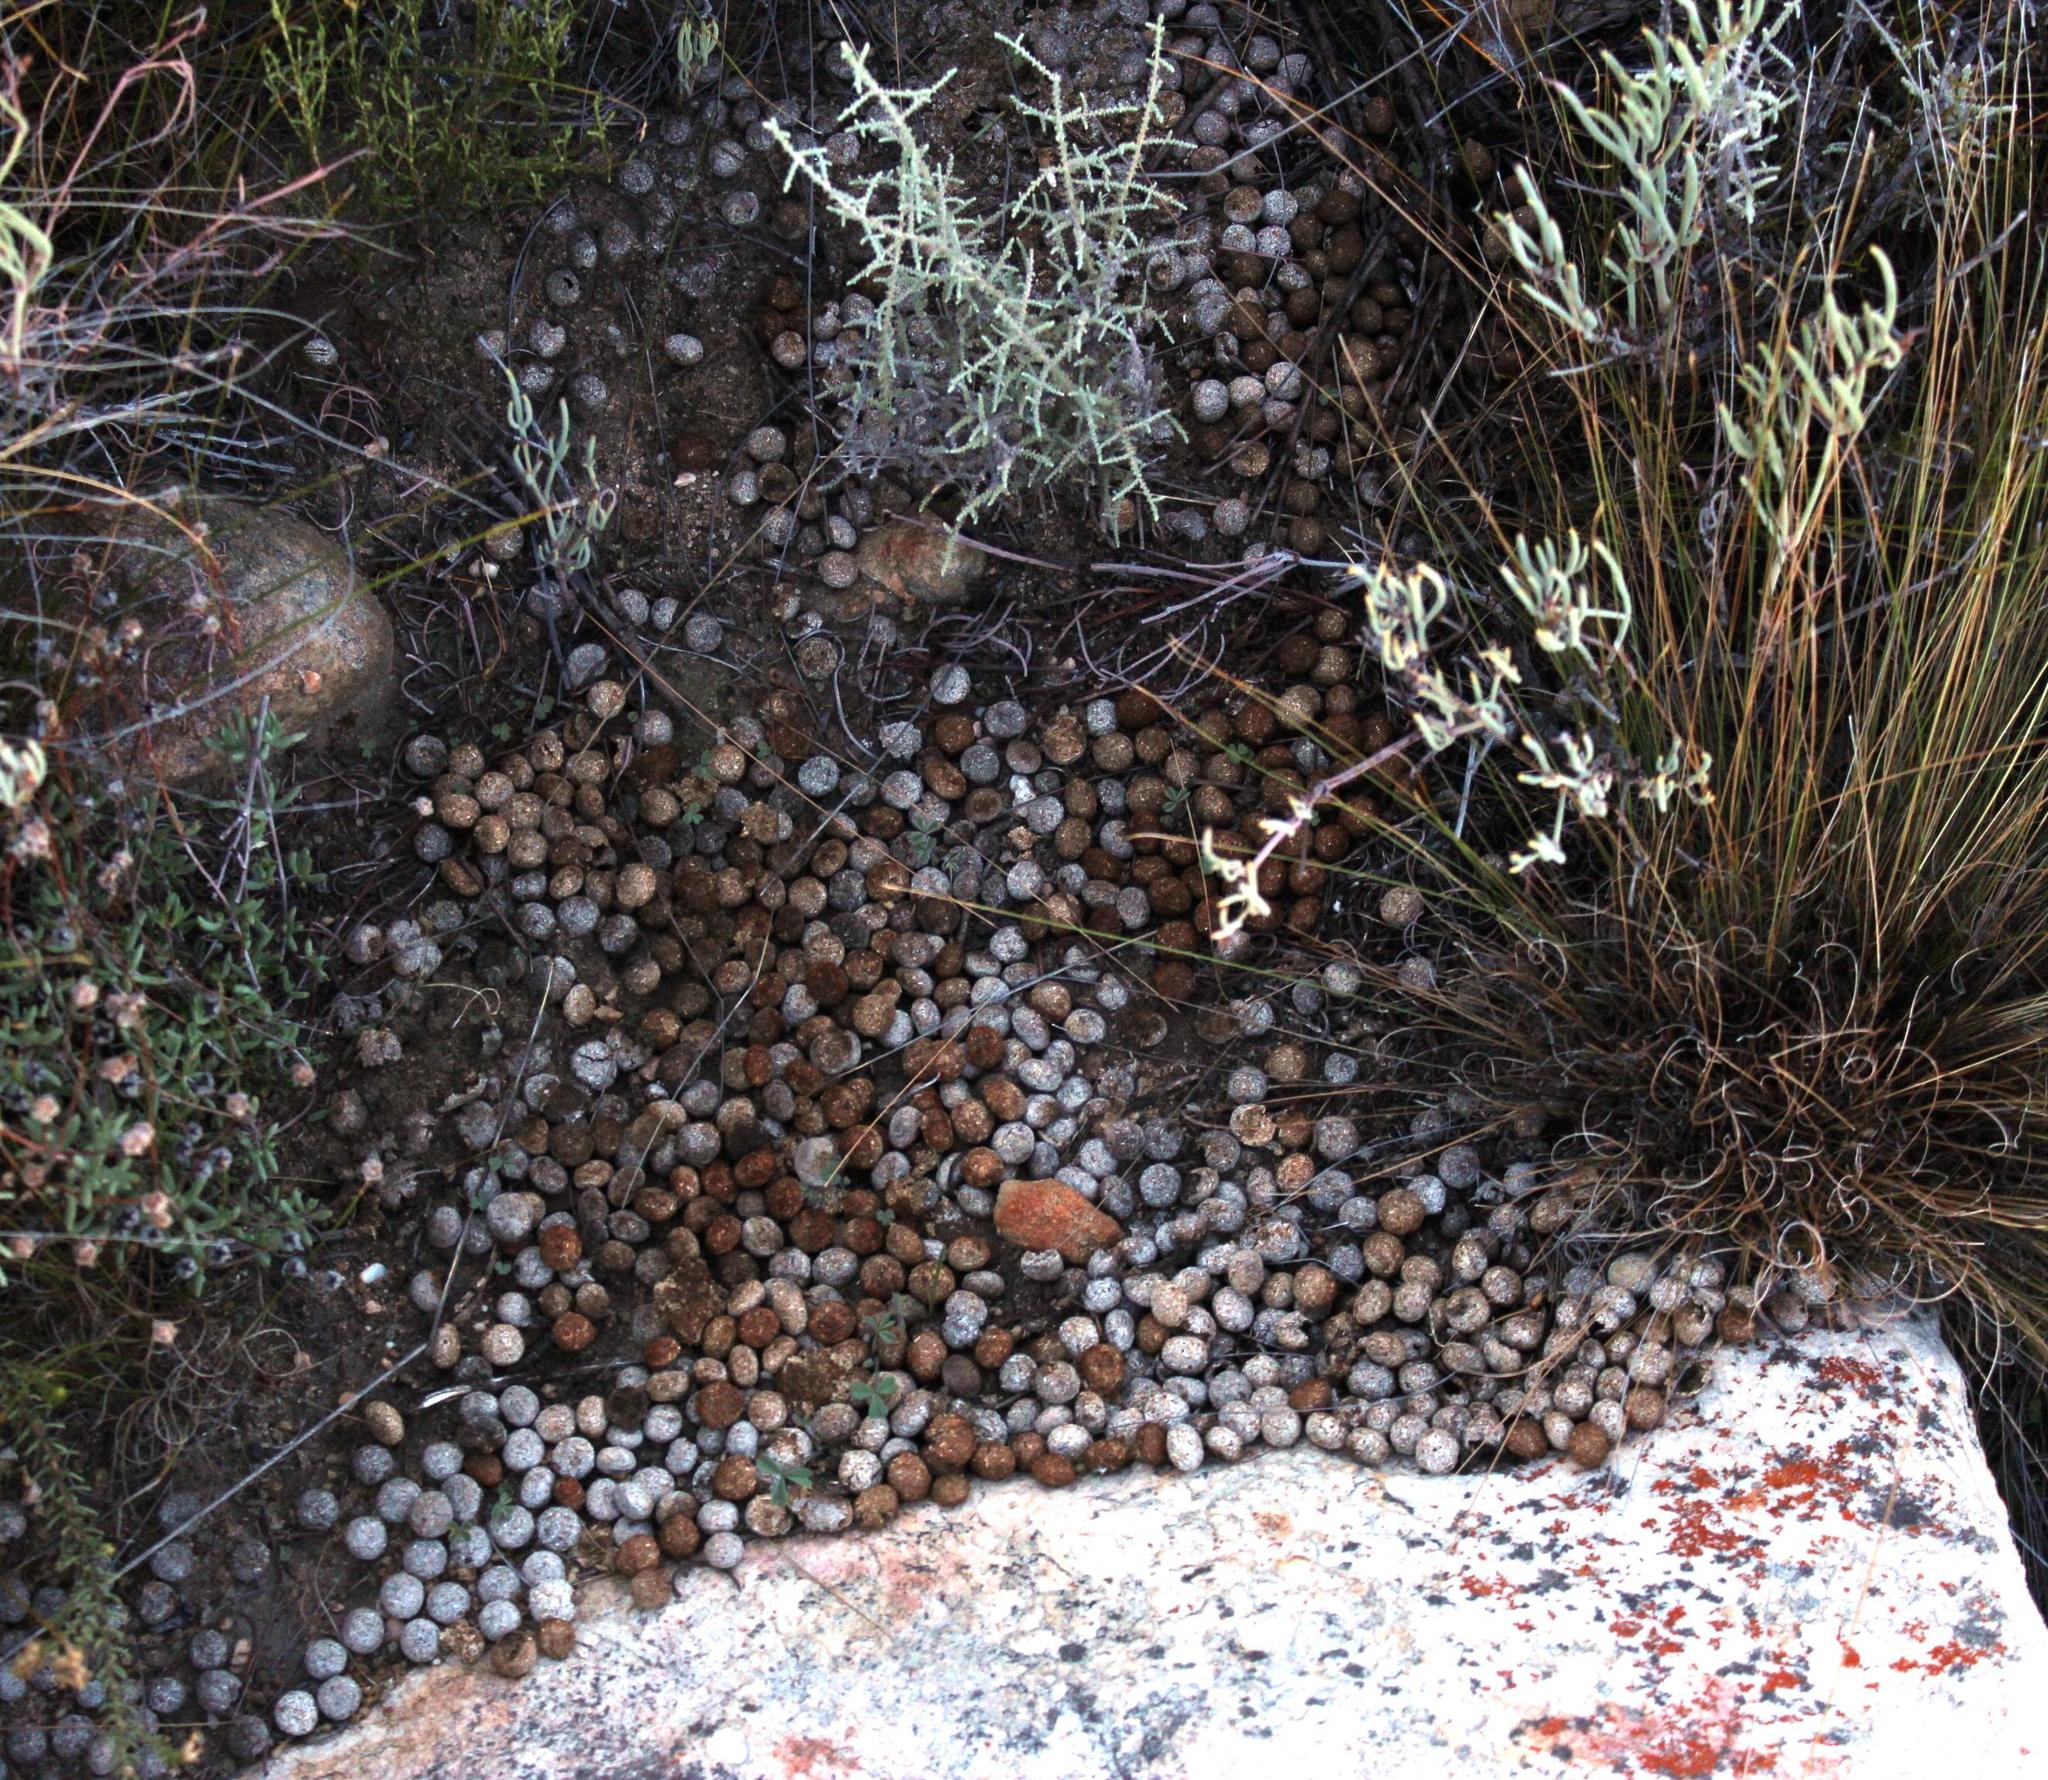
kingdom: Animalia
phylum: Chordata
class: Mammalia
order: Lagomorpha
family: Leporidae
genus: Pronolagus
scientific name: Pronolagus saundersiae
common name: Hewitt's red rock hare
